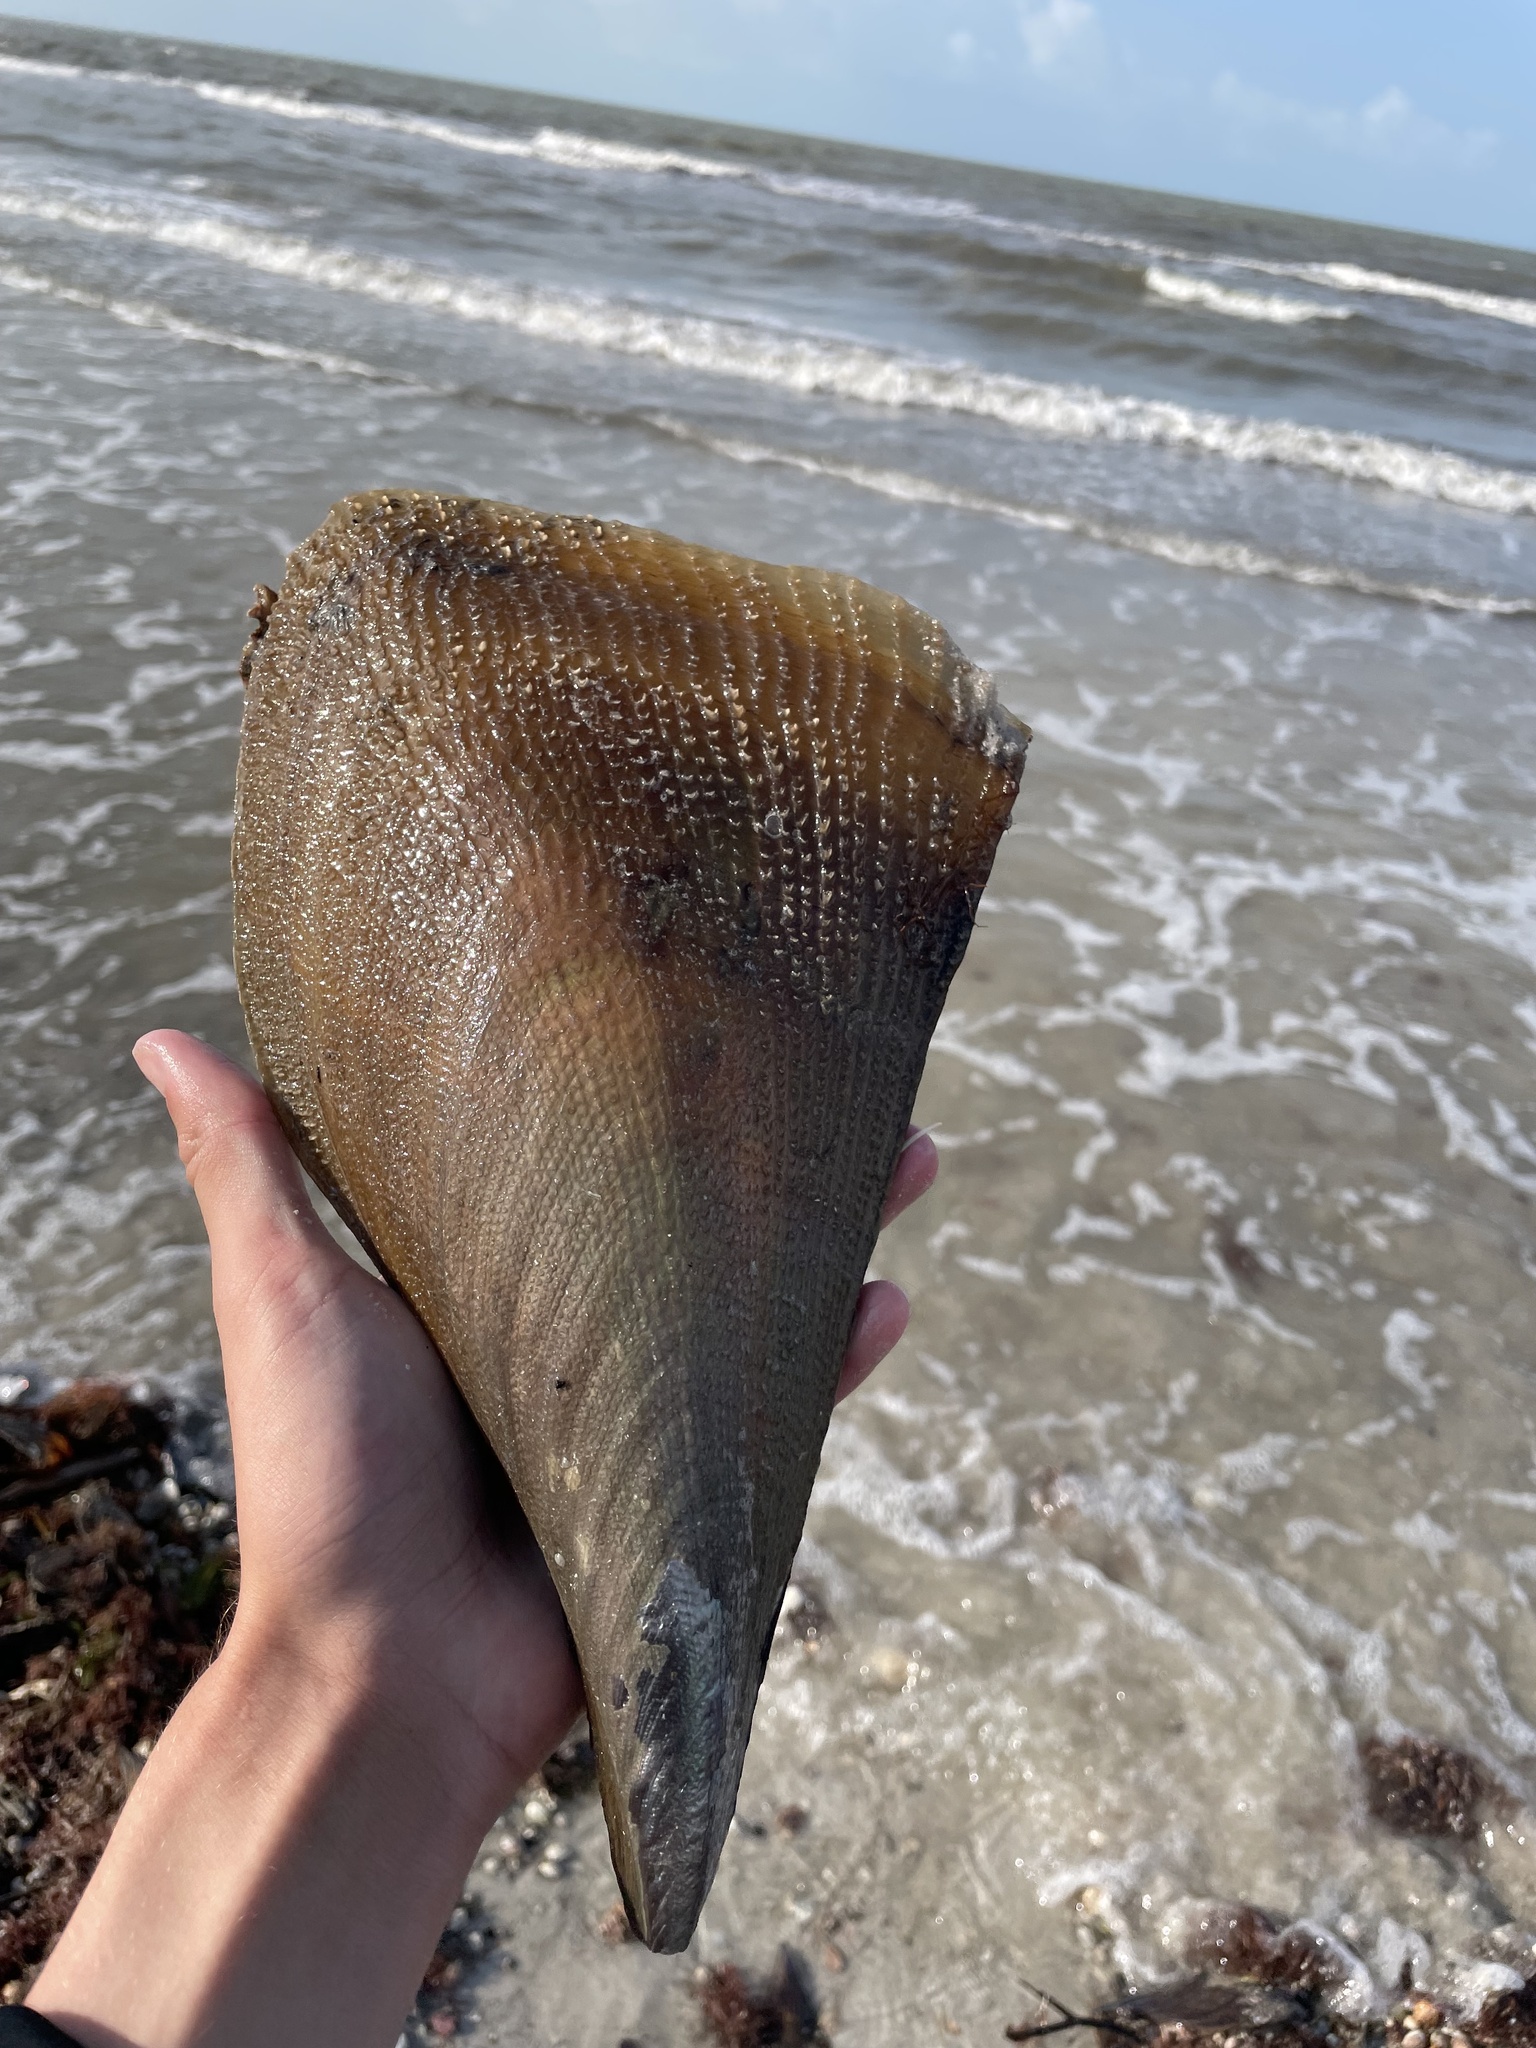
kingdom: Animalia
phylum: Mollusca
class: Bivalvia
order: Ostreida
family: Pinnidae
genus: Atrina
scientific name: Atrina serrata
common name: Saw-toothed penshell
